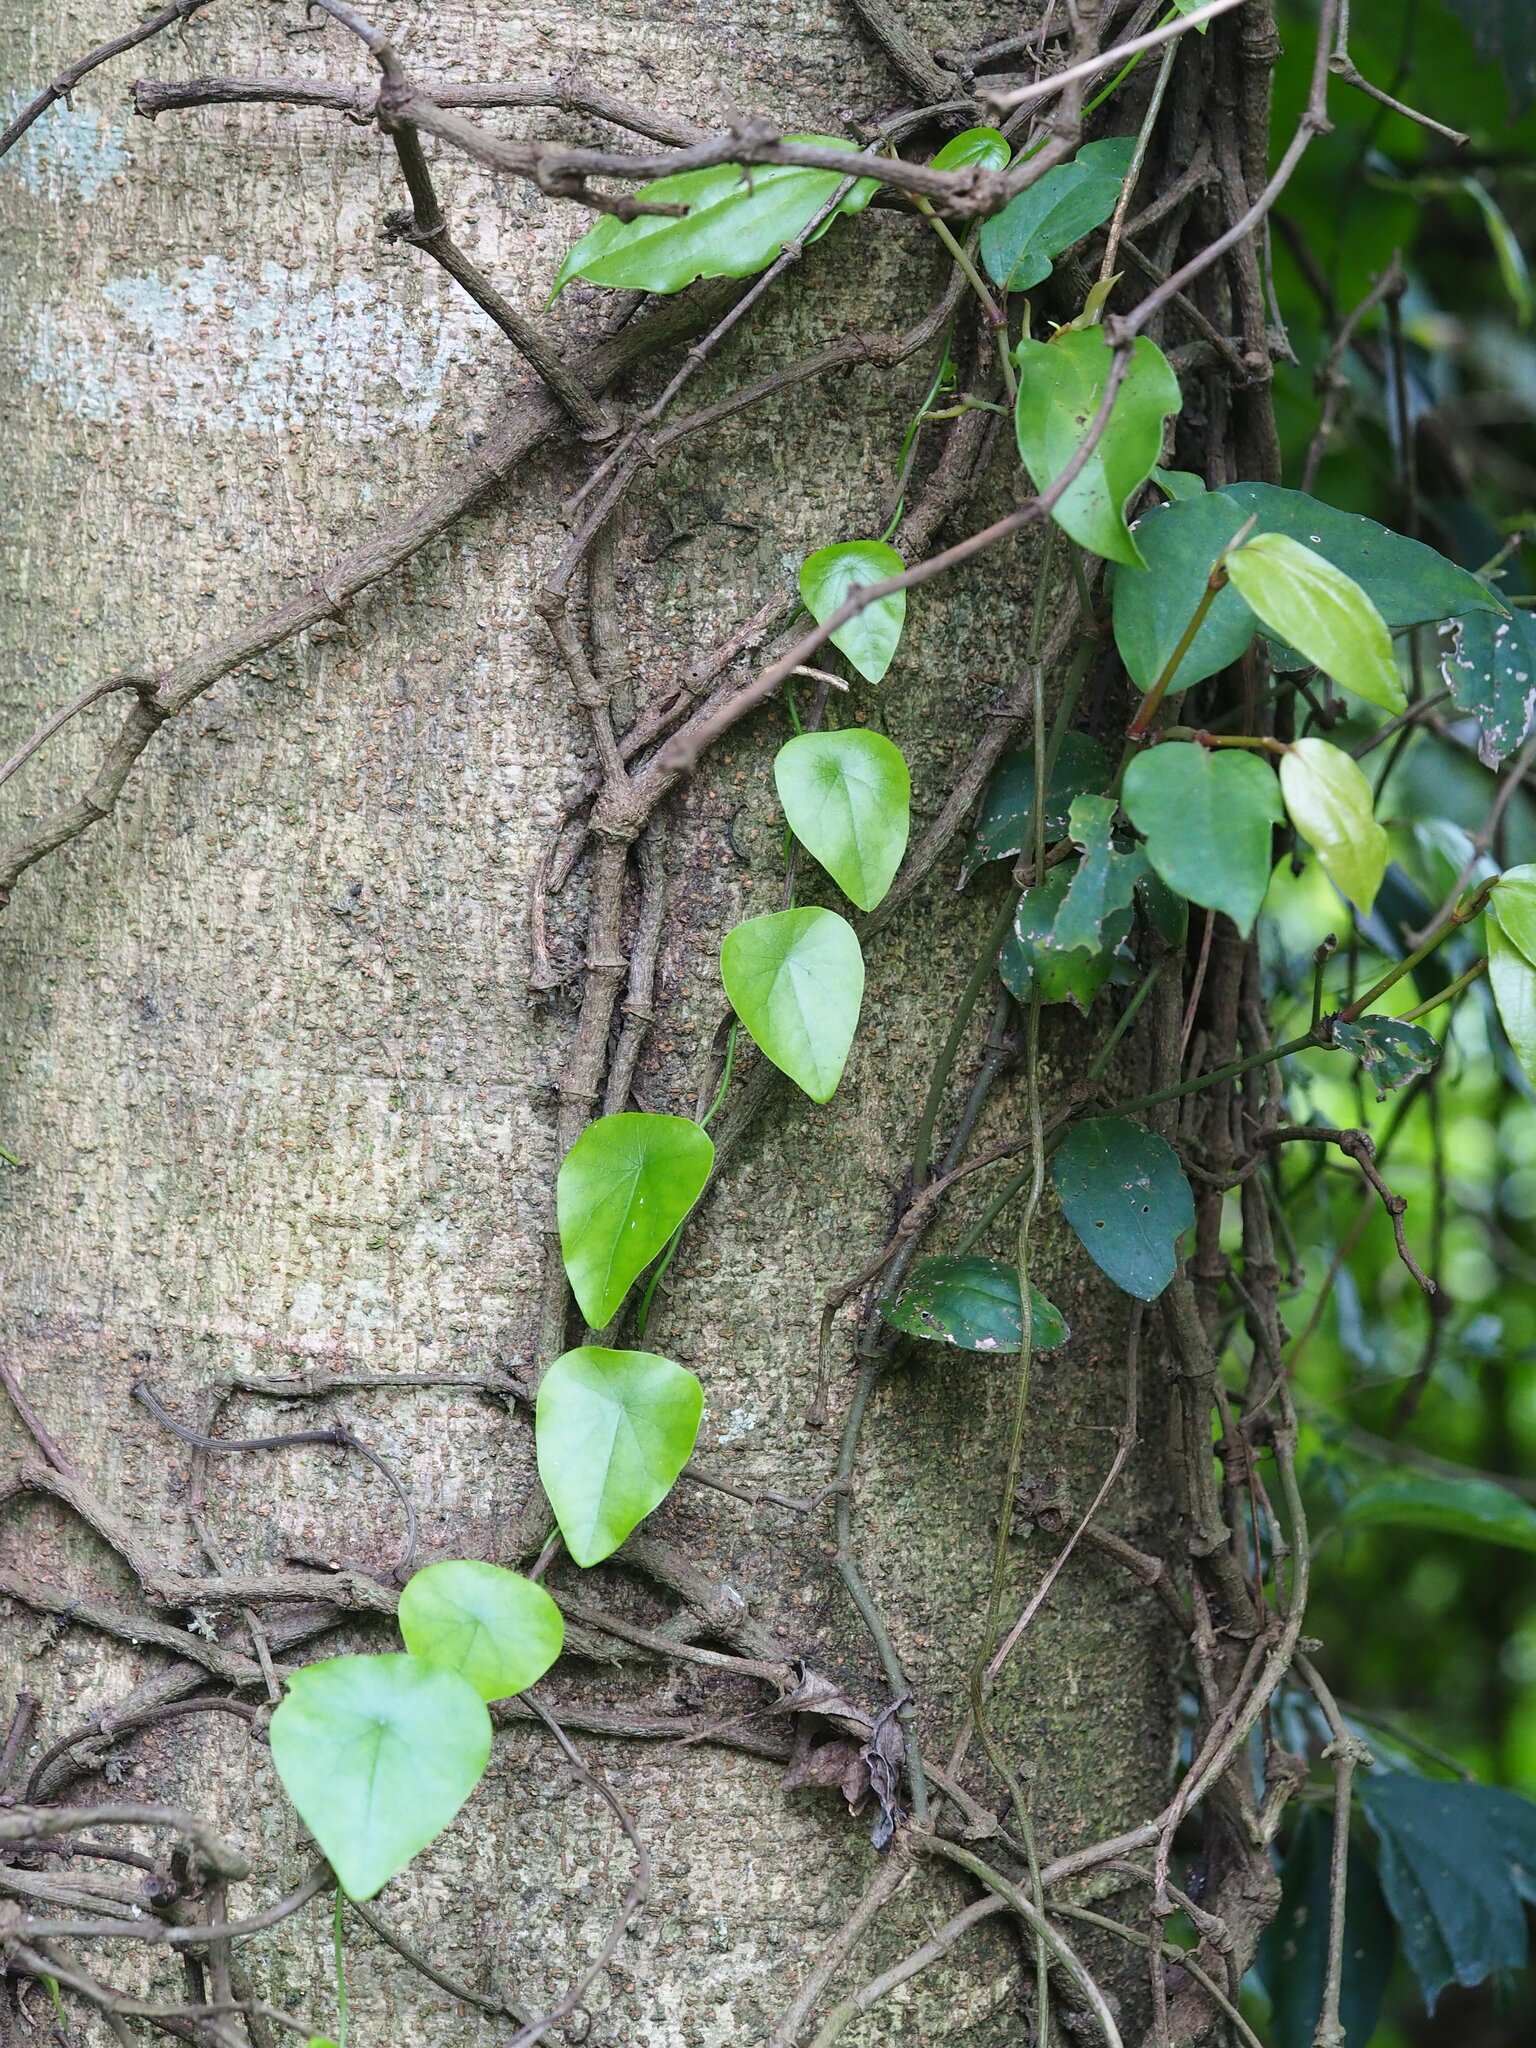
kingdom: Plantae
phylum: Tracheophyta
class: Magnoliopsida
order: Ranunculales
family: Menispermaceae
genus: Stephania
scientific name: Stephania longa
